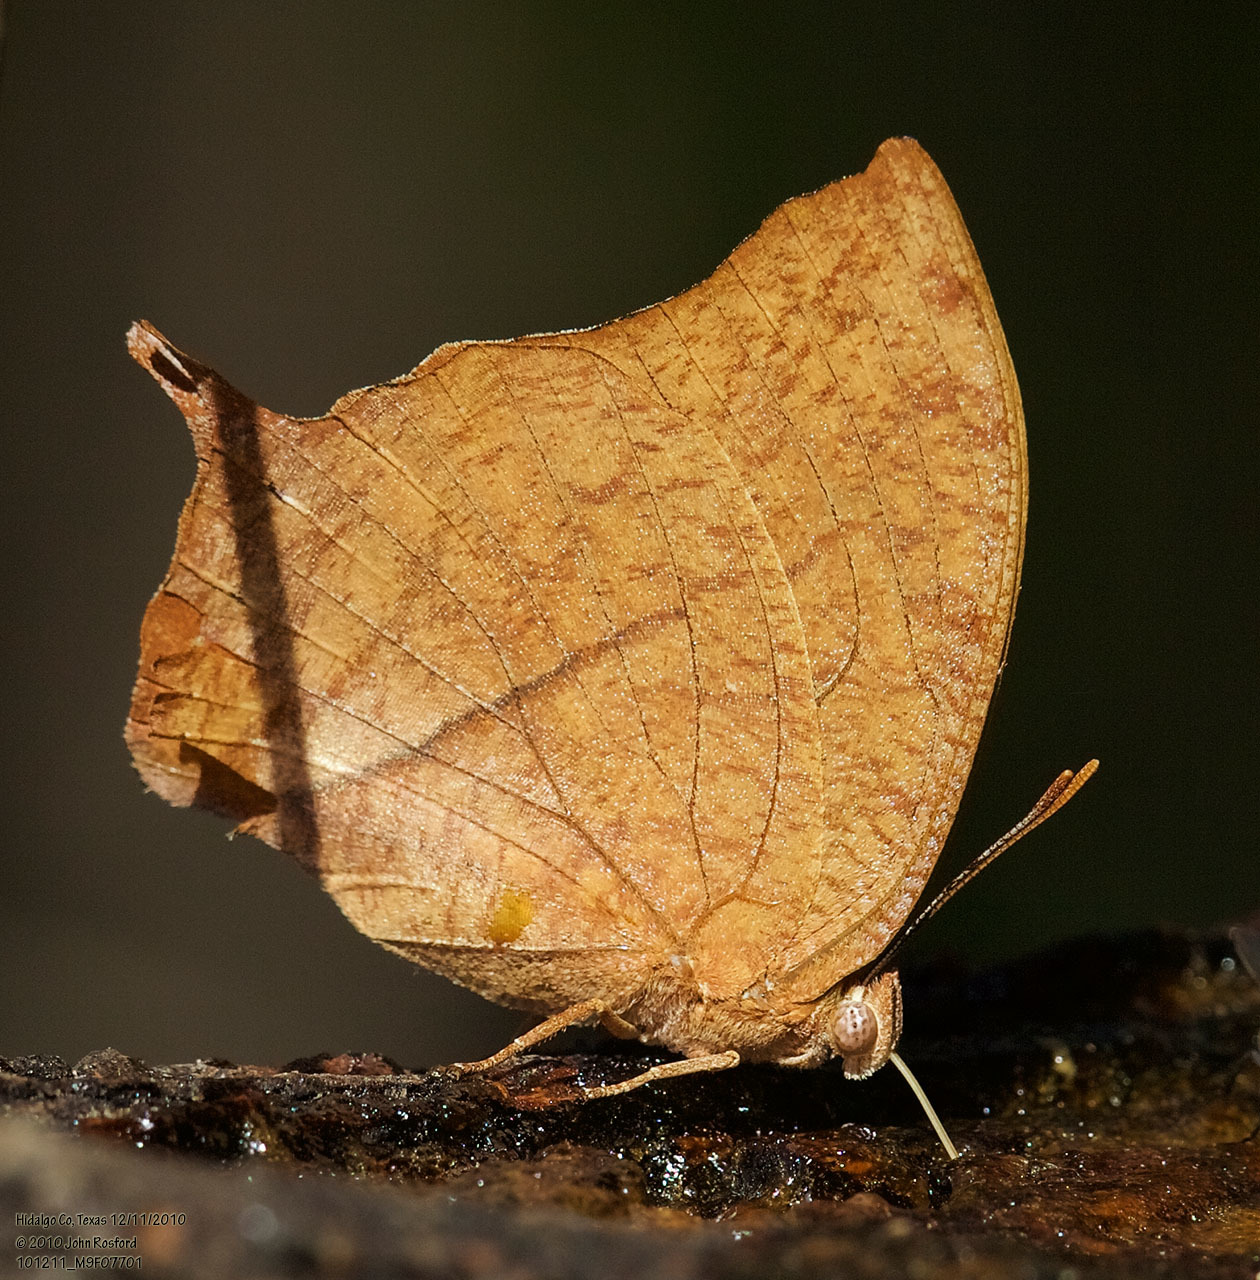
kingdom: Animalia
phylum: Arthropoda
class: Insecta
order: Lepidoptera
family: Nymphalidae
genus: Fountainea
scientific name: Fountainea
